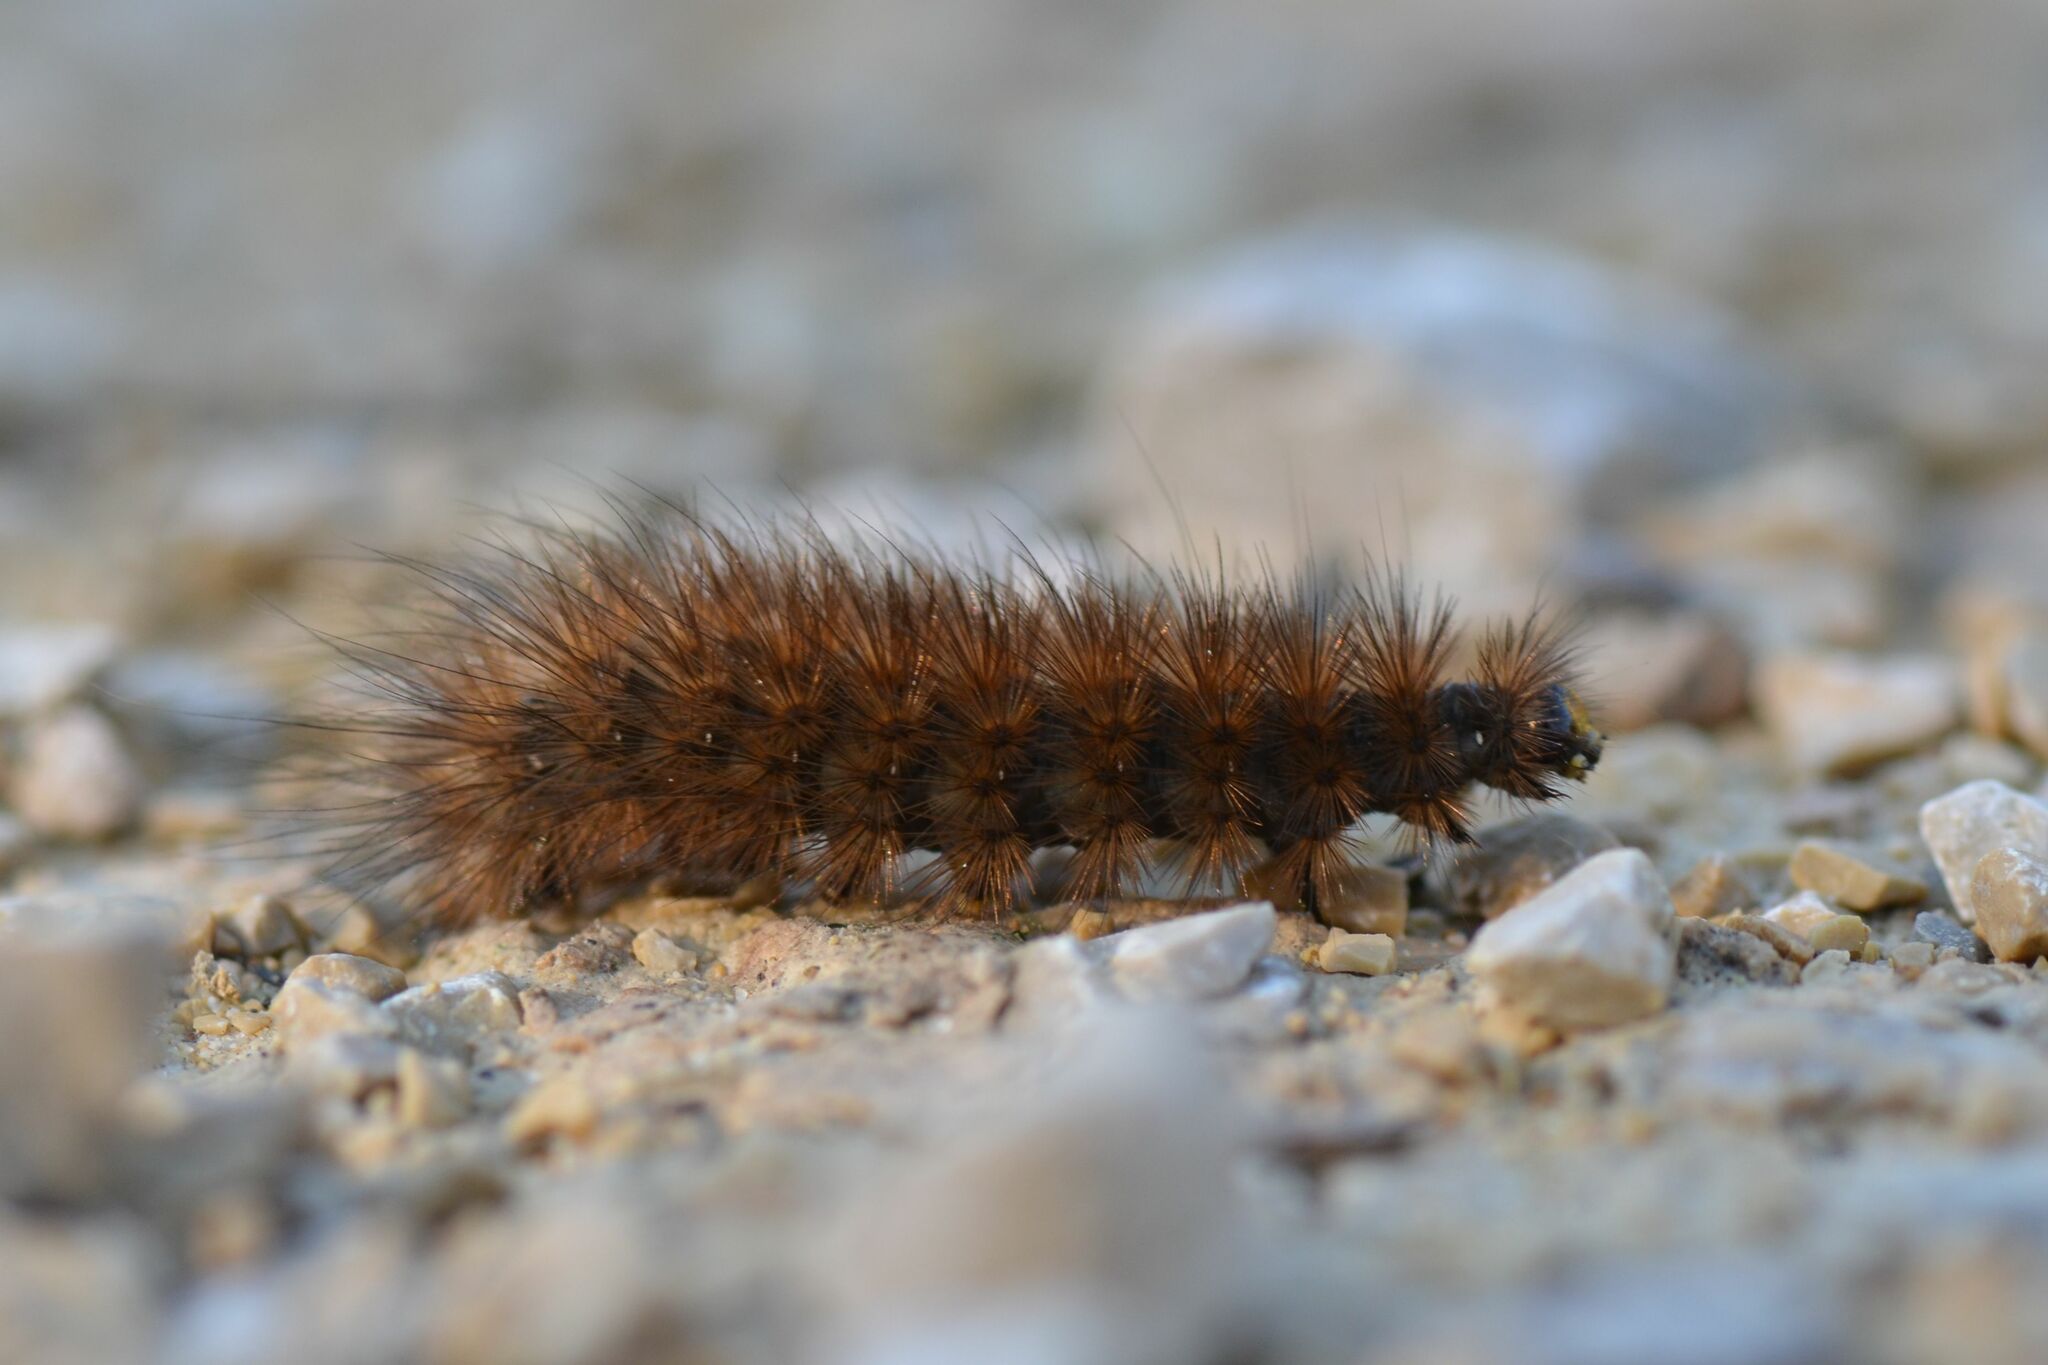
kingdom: Animalia
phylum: Arthropoda
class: Insecta
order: Lepidoptera
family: Erebidae
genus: Phragmatobia
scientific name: Phragmatobia fuliginosa
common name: Ruby tiger
